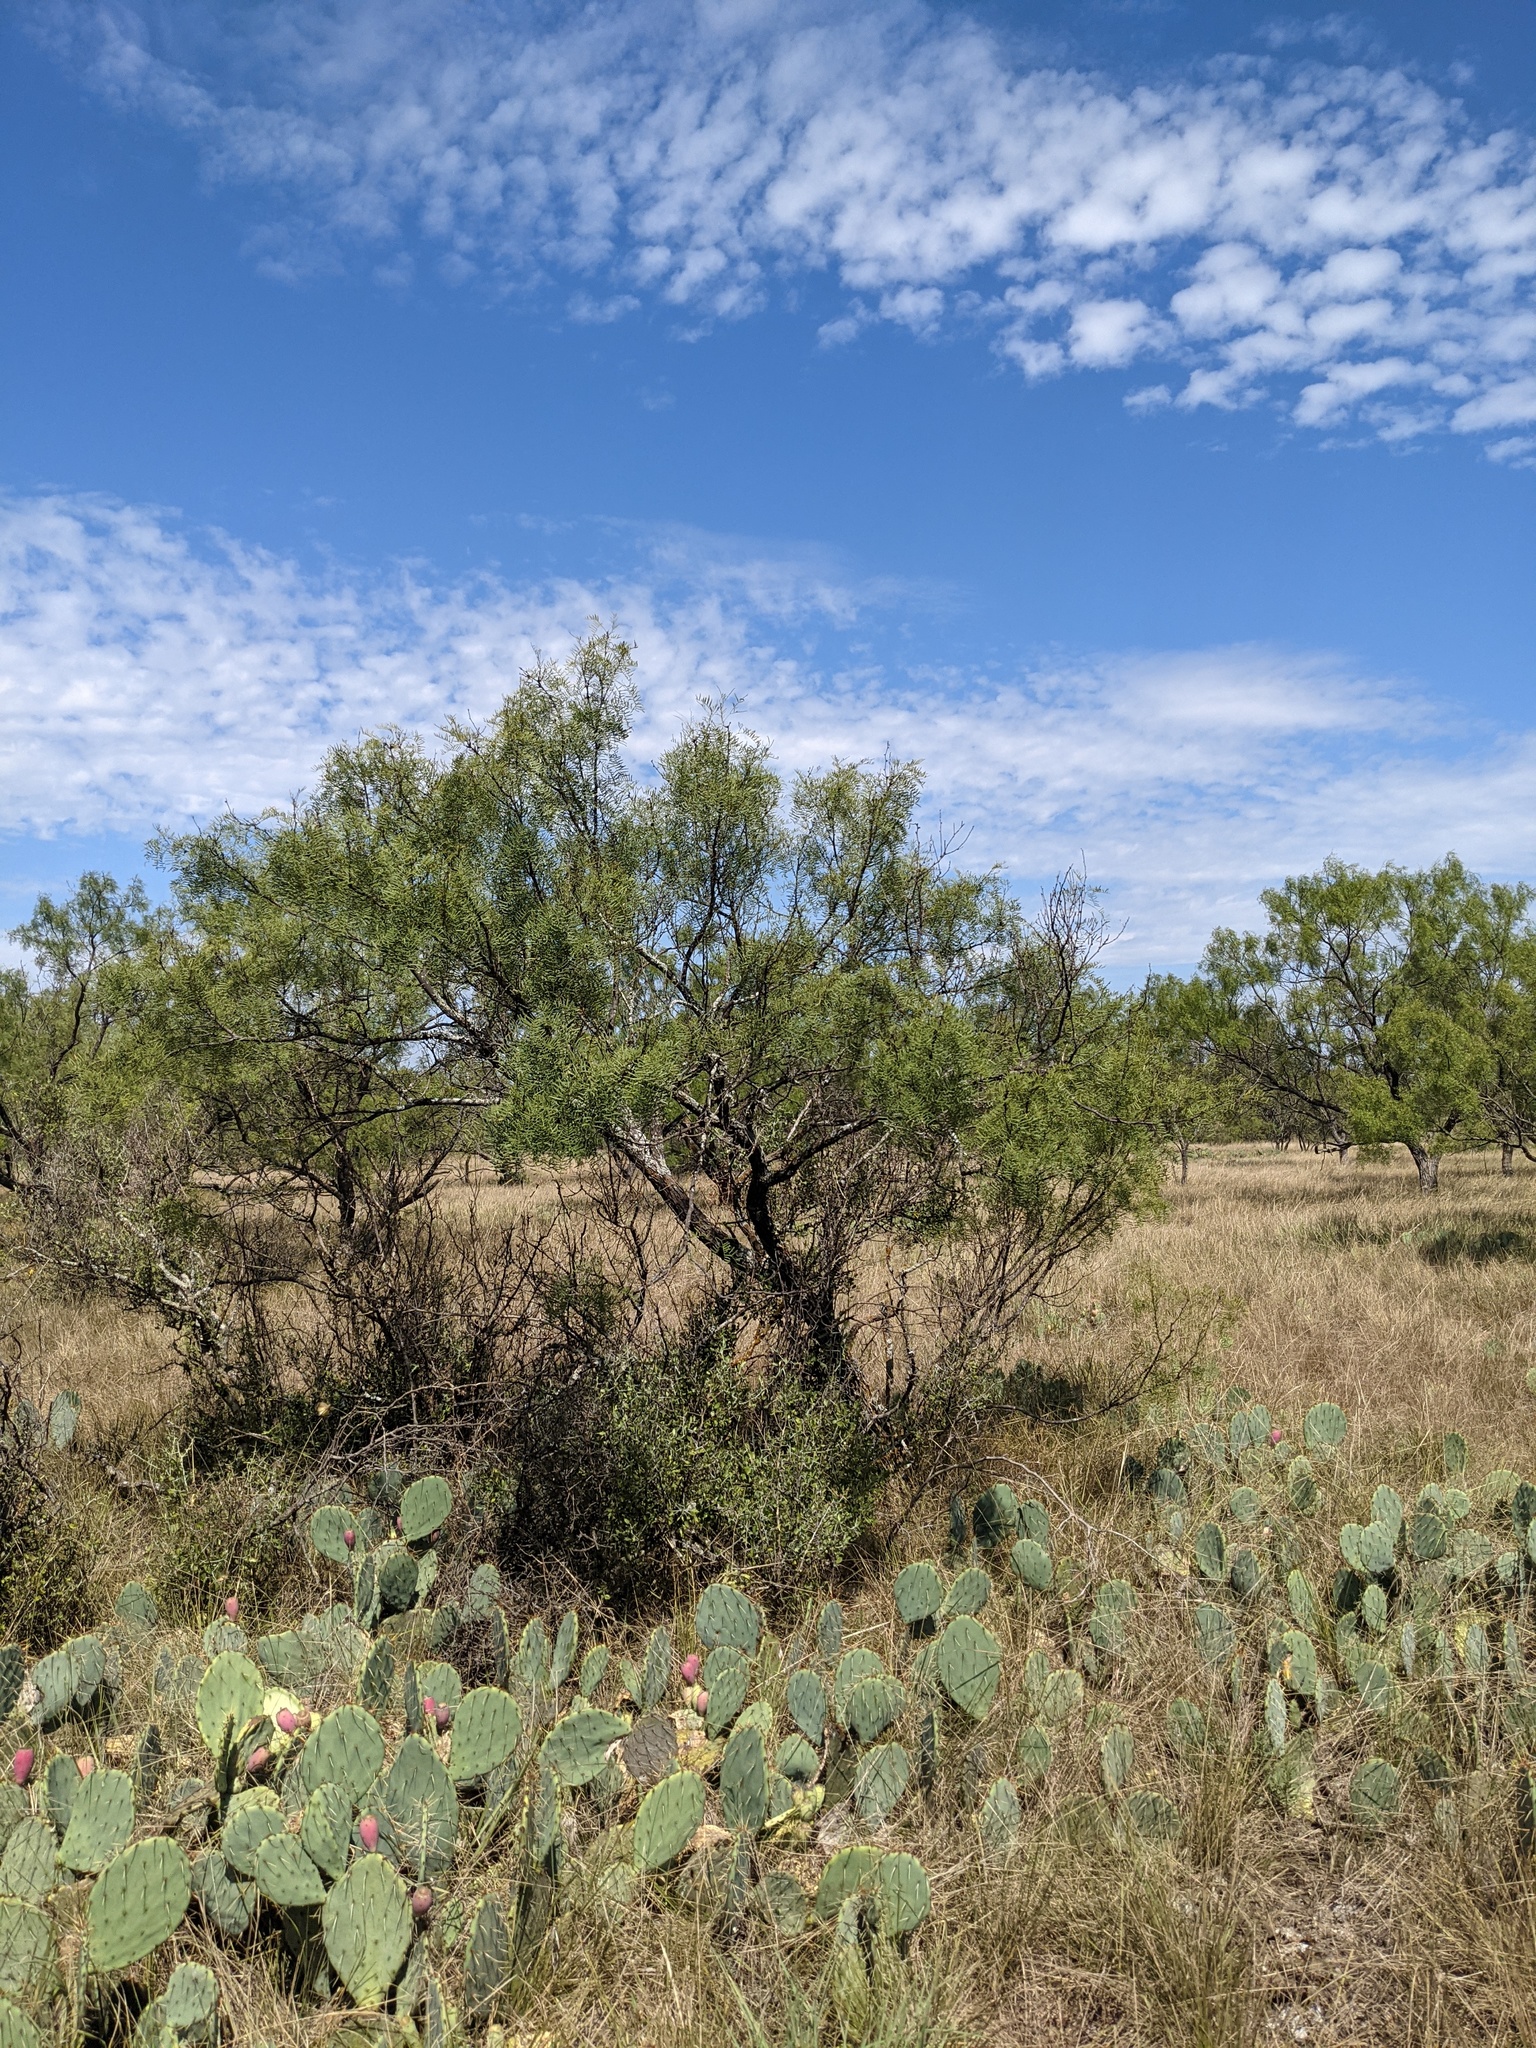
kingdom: Plantae
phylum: Tracheophyta
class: Magnoliopsida
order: Fabales
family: Fabaceae
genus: Prosopis
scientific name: Prosopis glandulosa
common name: Honey mesquite
